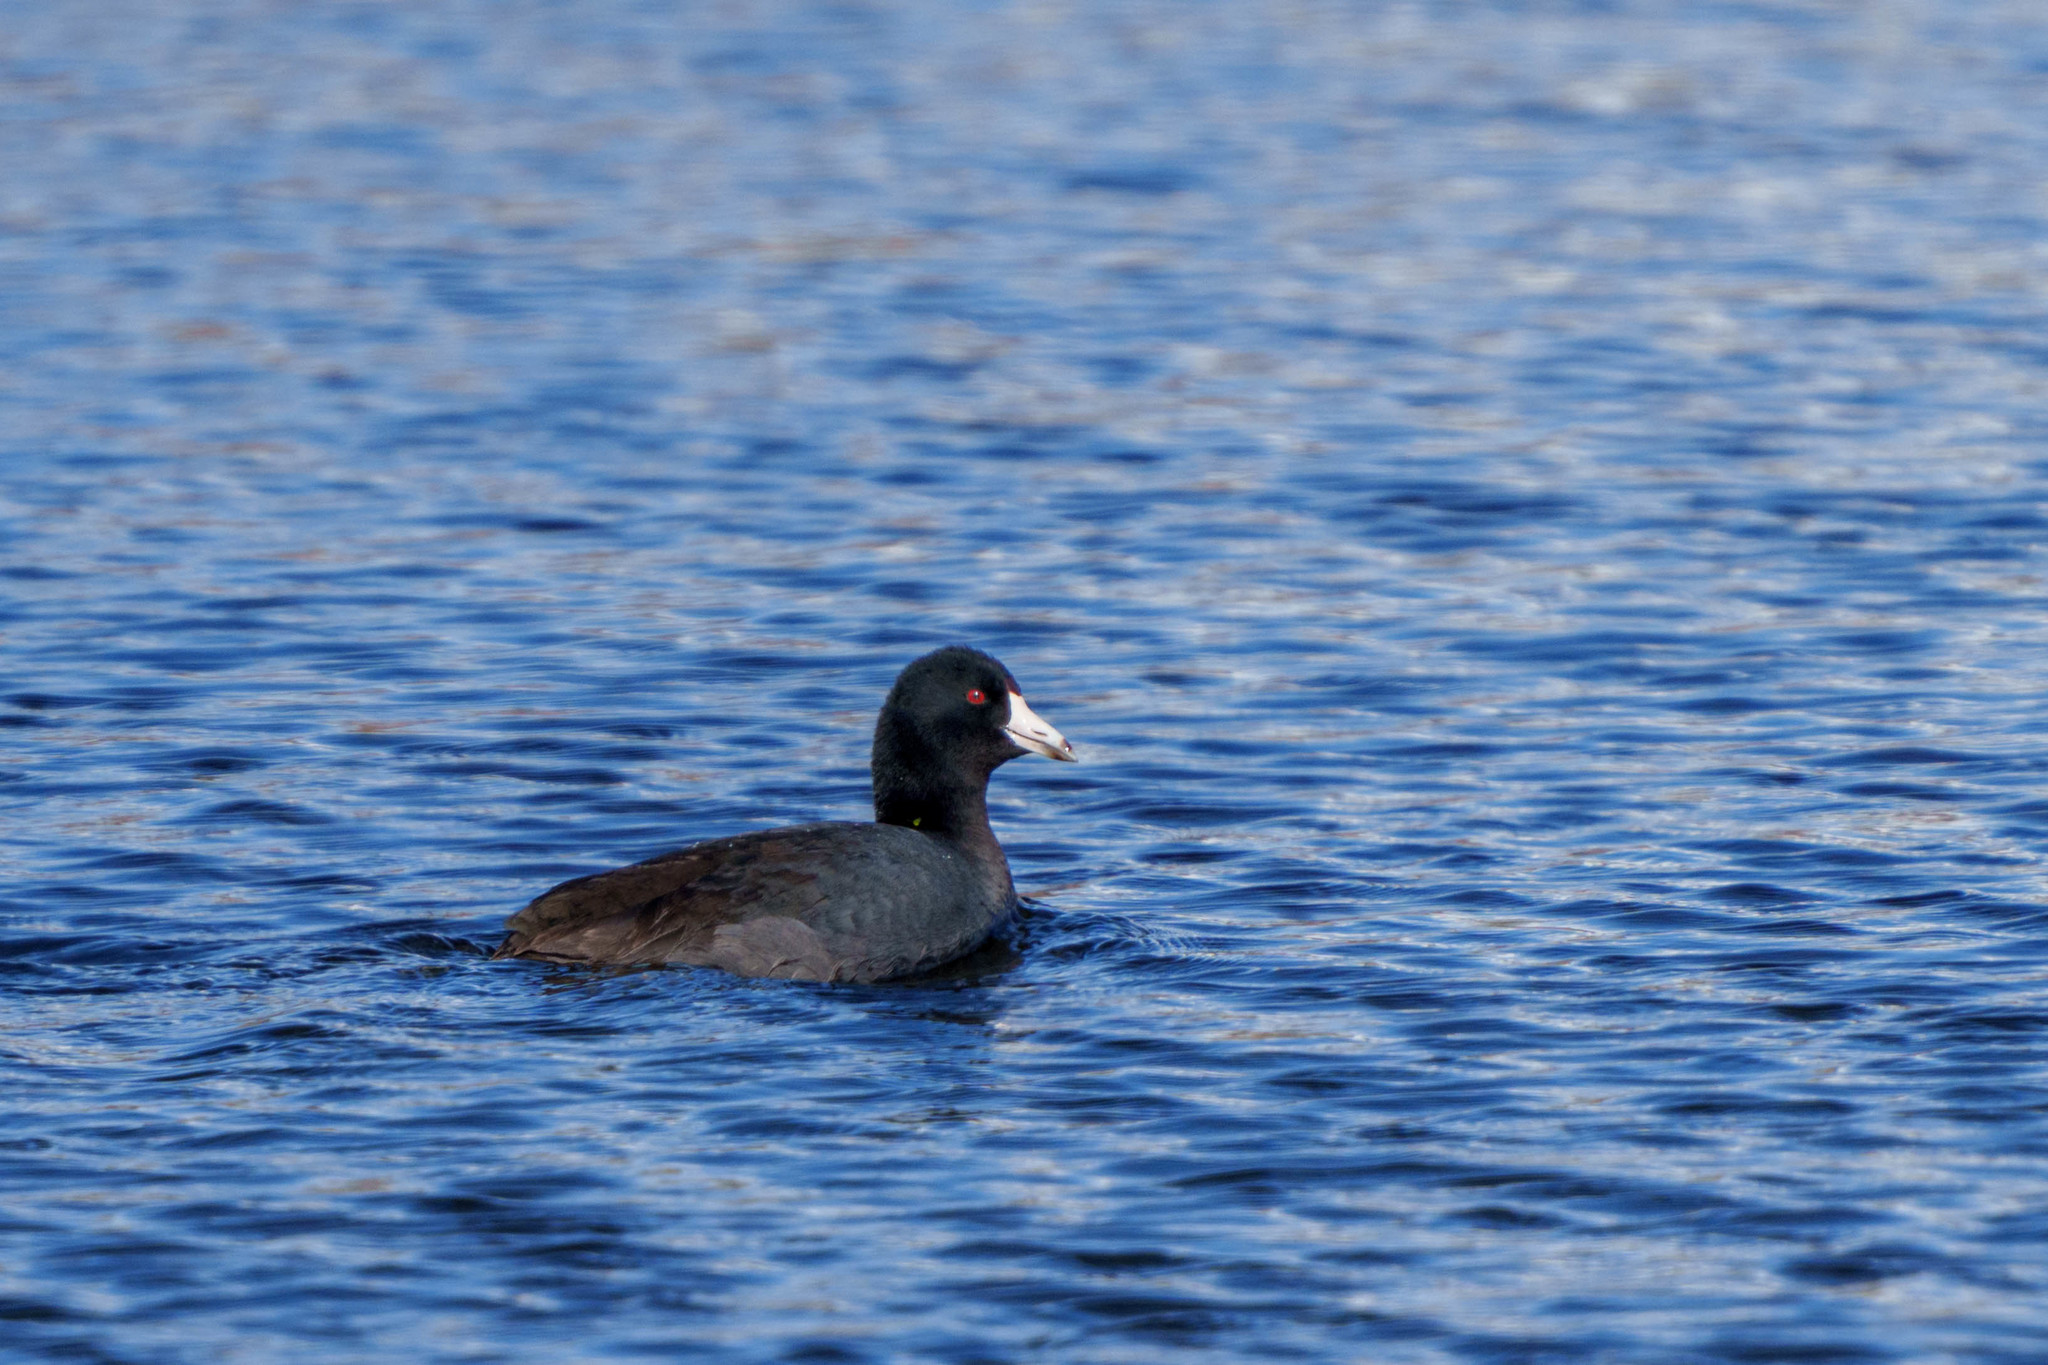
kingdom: Animalia
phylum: Chordata
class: Aves
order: Gruiformes
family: Rallidae
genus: Fulica
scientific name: Fulica americana
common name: American coot
